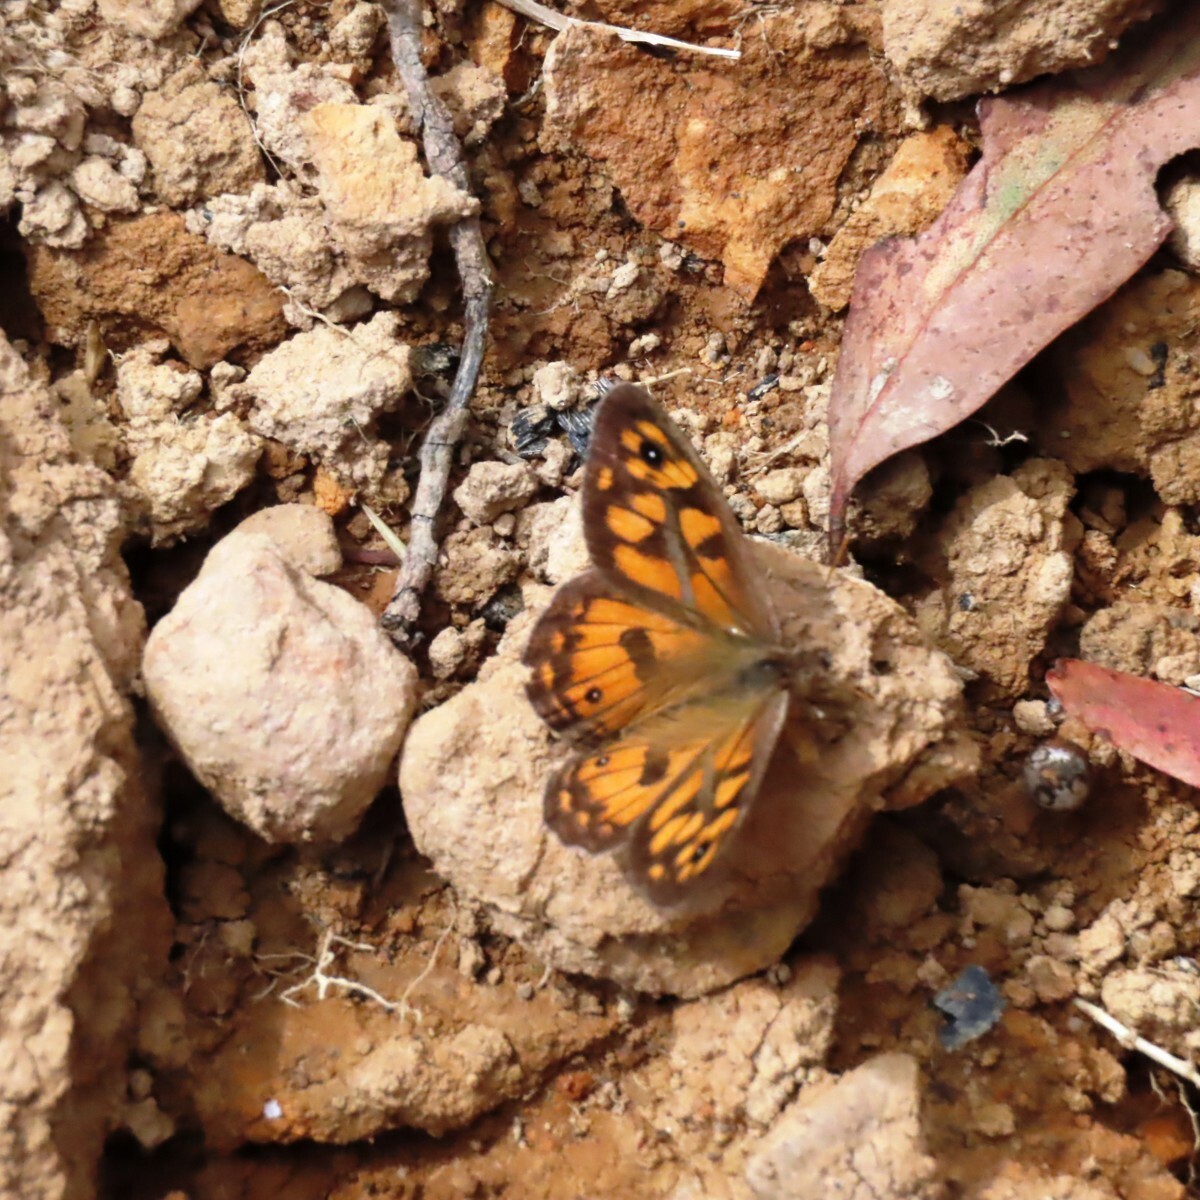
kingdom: Animalia
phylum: Arthropoda
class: Insecta
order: Lepidoptera
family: Nymphalidae
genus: Geitoneura
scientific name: Geitoneura klugii
